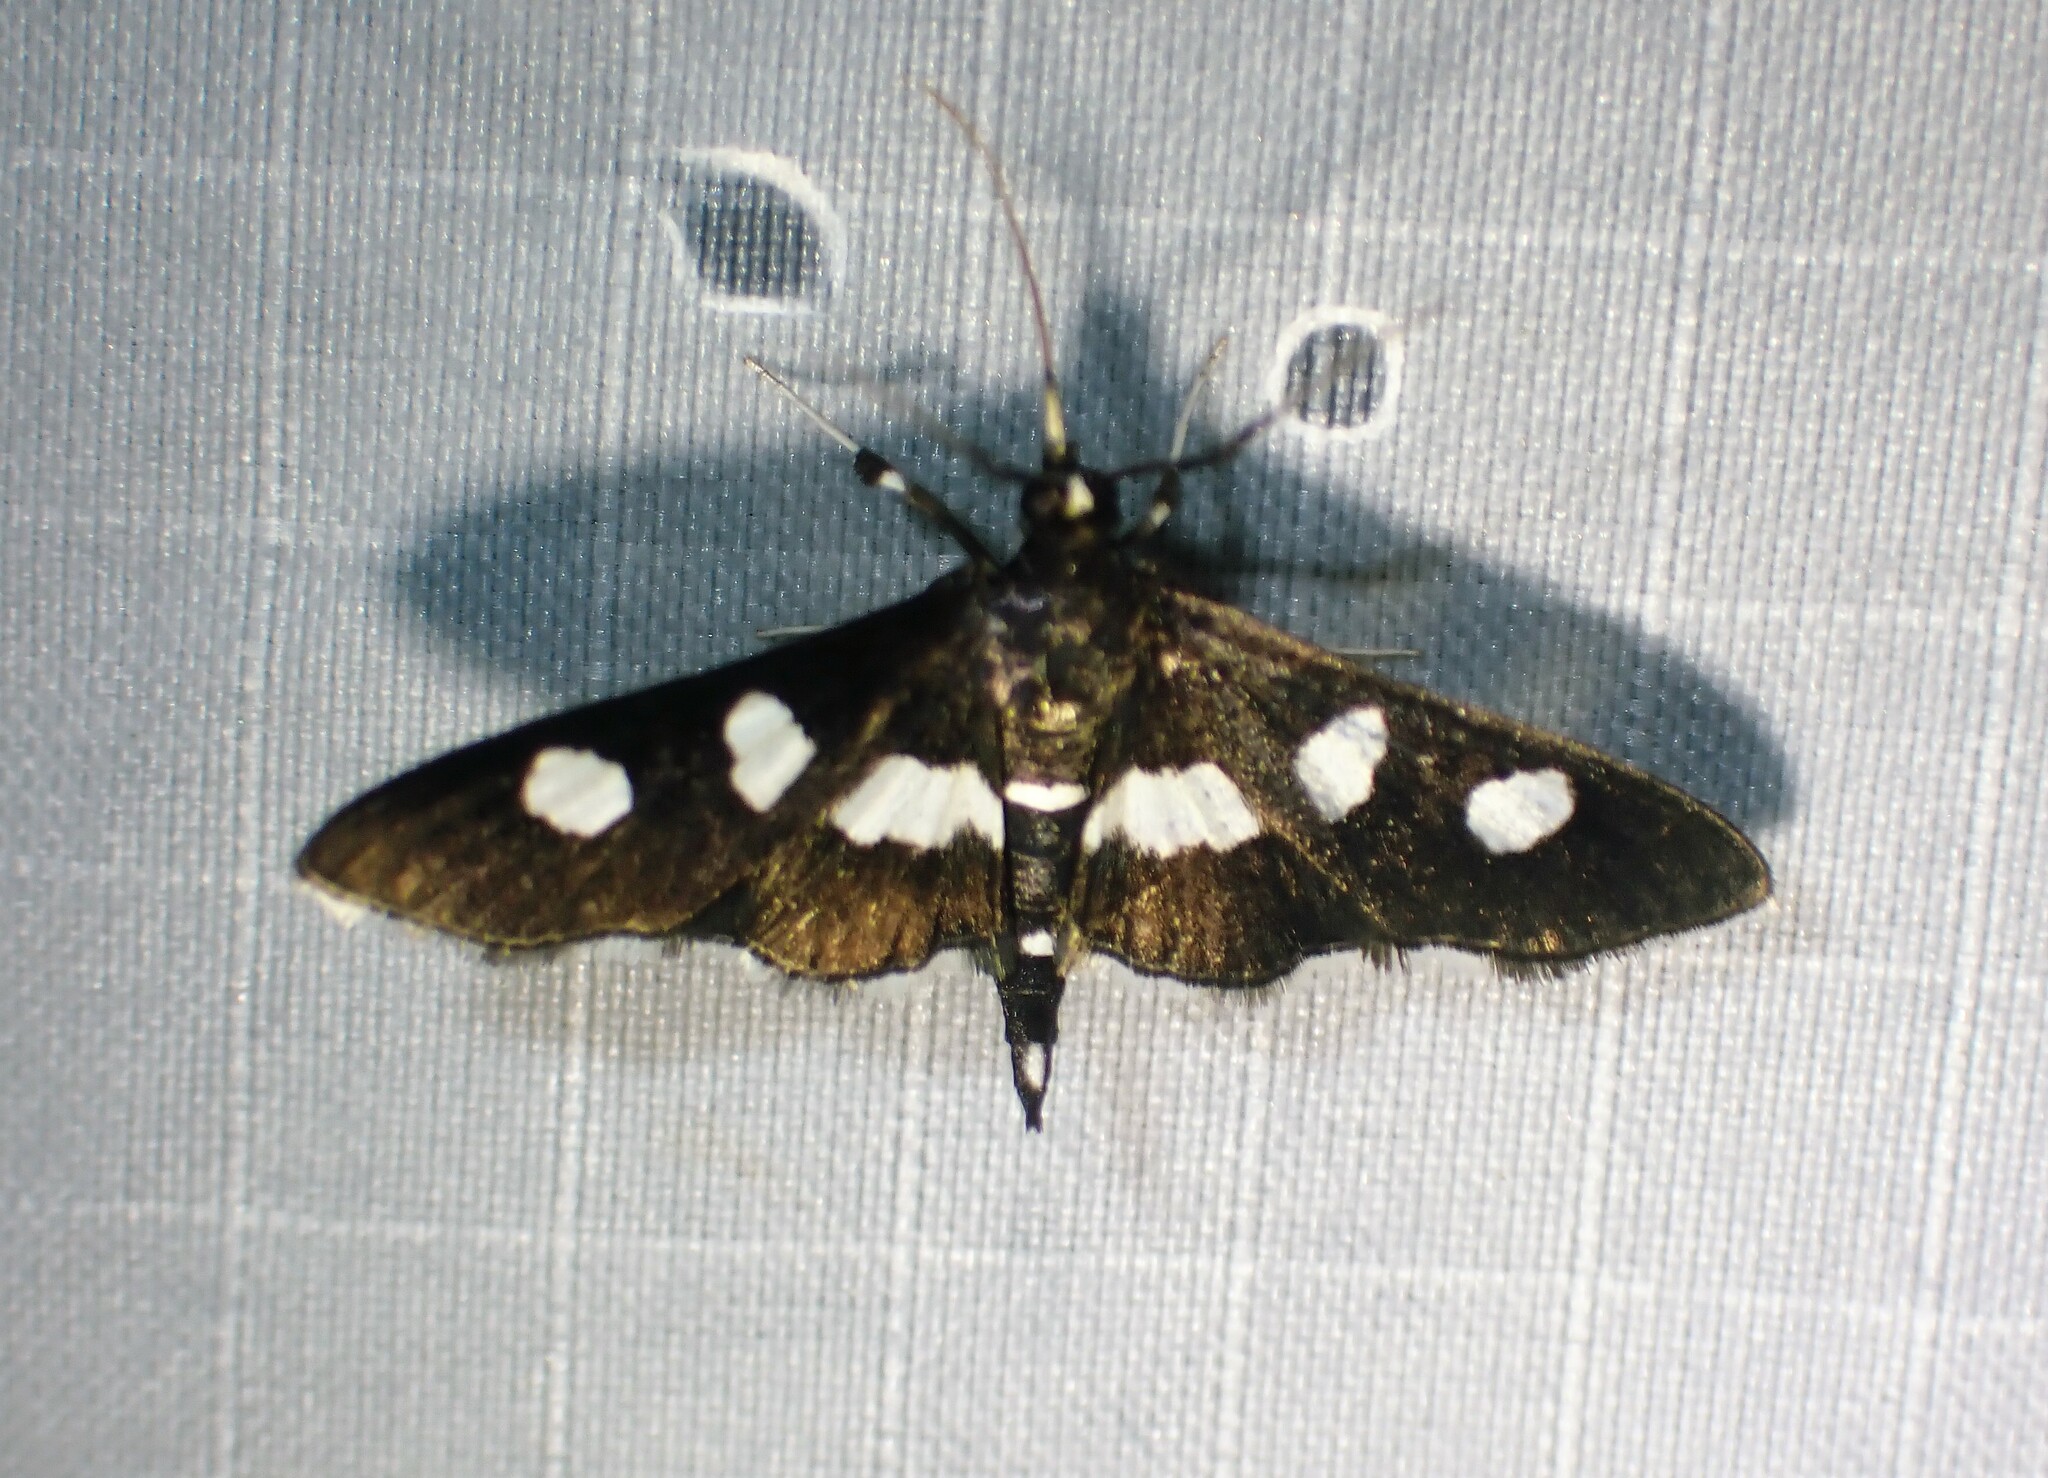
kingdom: Animalia
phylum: Arthropoda
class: Insecta
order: Lepidoptera
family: Crambidae
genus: Desmia
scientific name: Desmia funeralis
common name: Grape leaf folder moth
